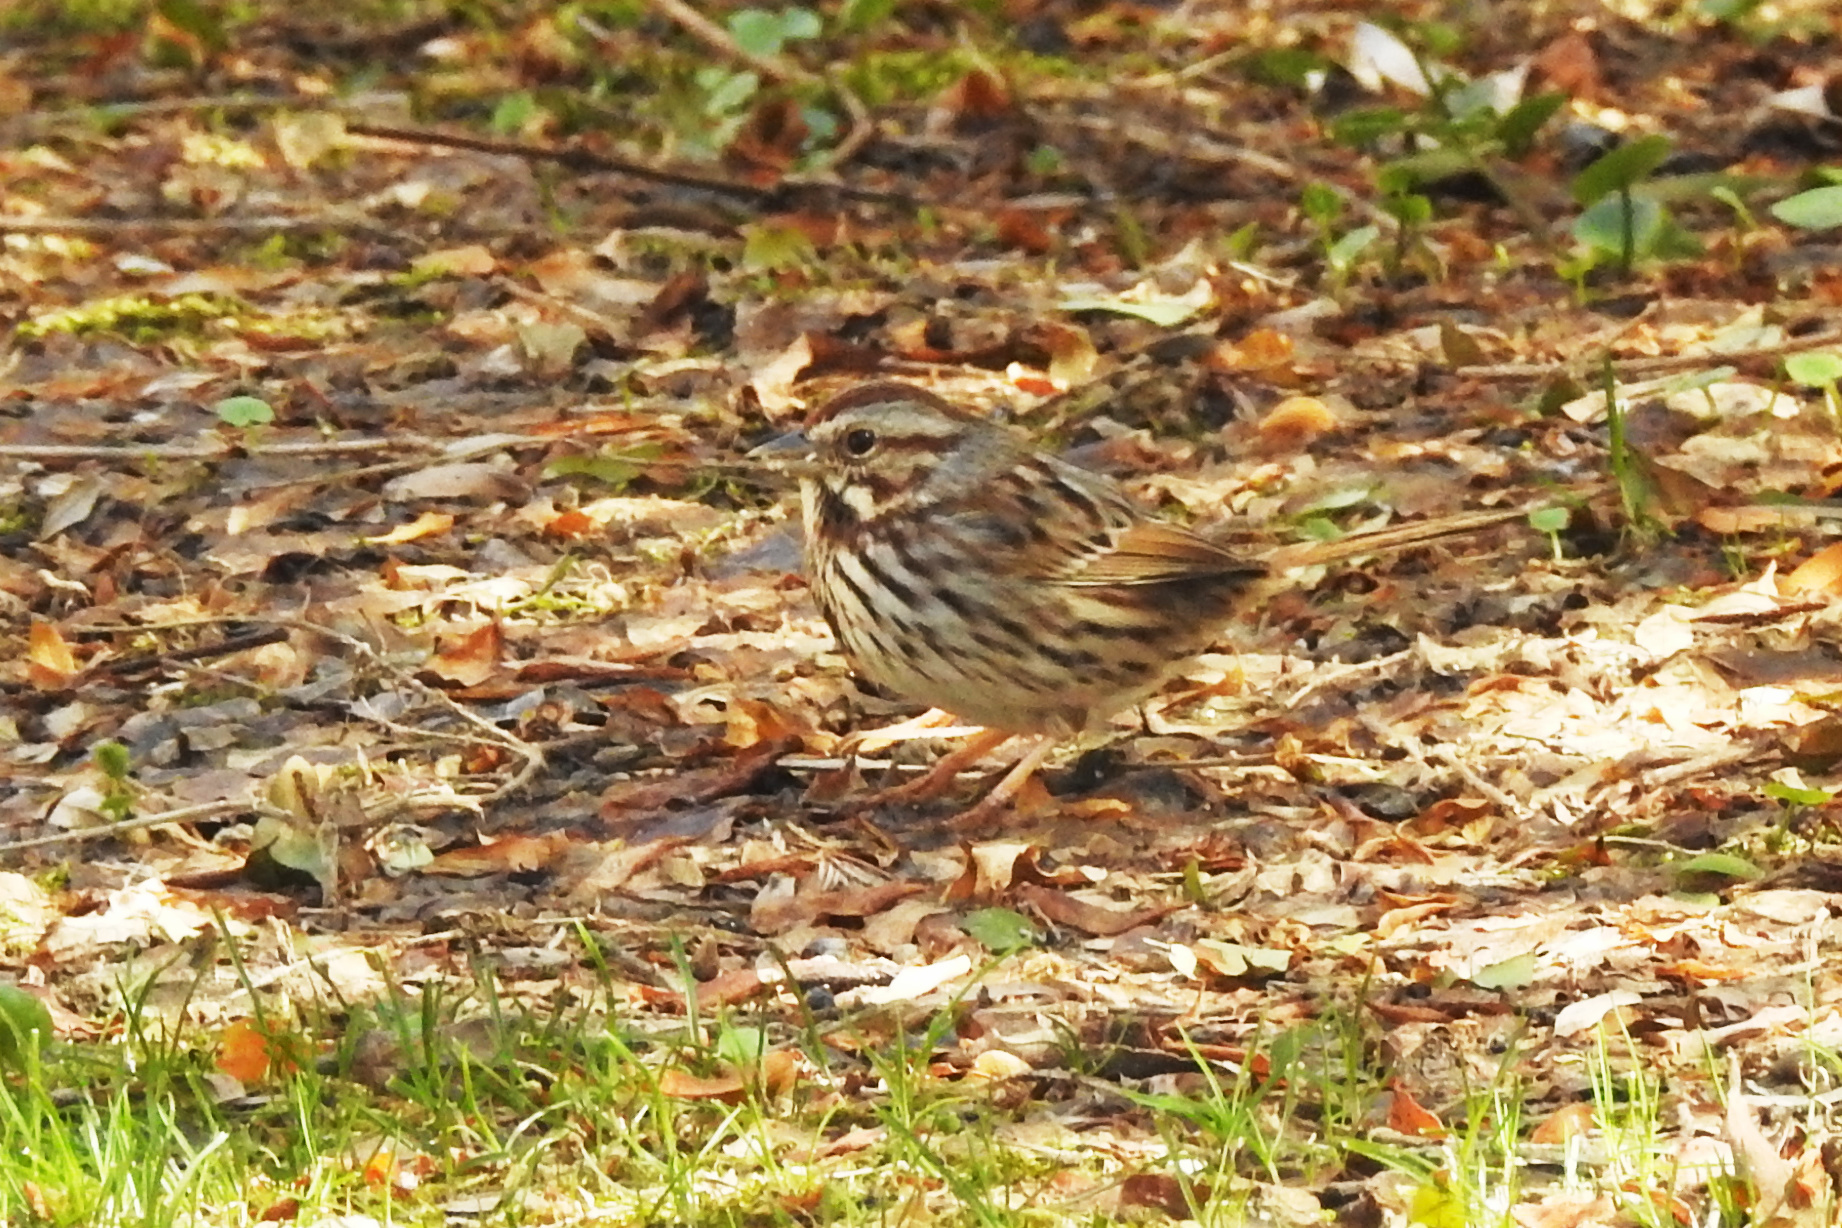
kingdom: Animalia
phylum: Chordata
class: Aves
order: Passeriformes
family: Passerellidae
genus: Melospiza
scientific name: Melospiza melodia
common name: Song sparrow
